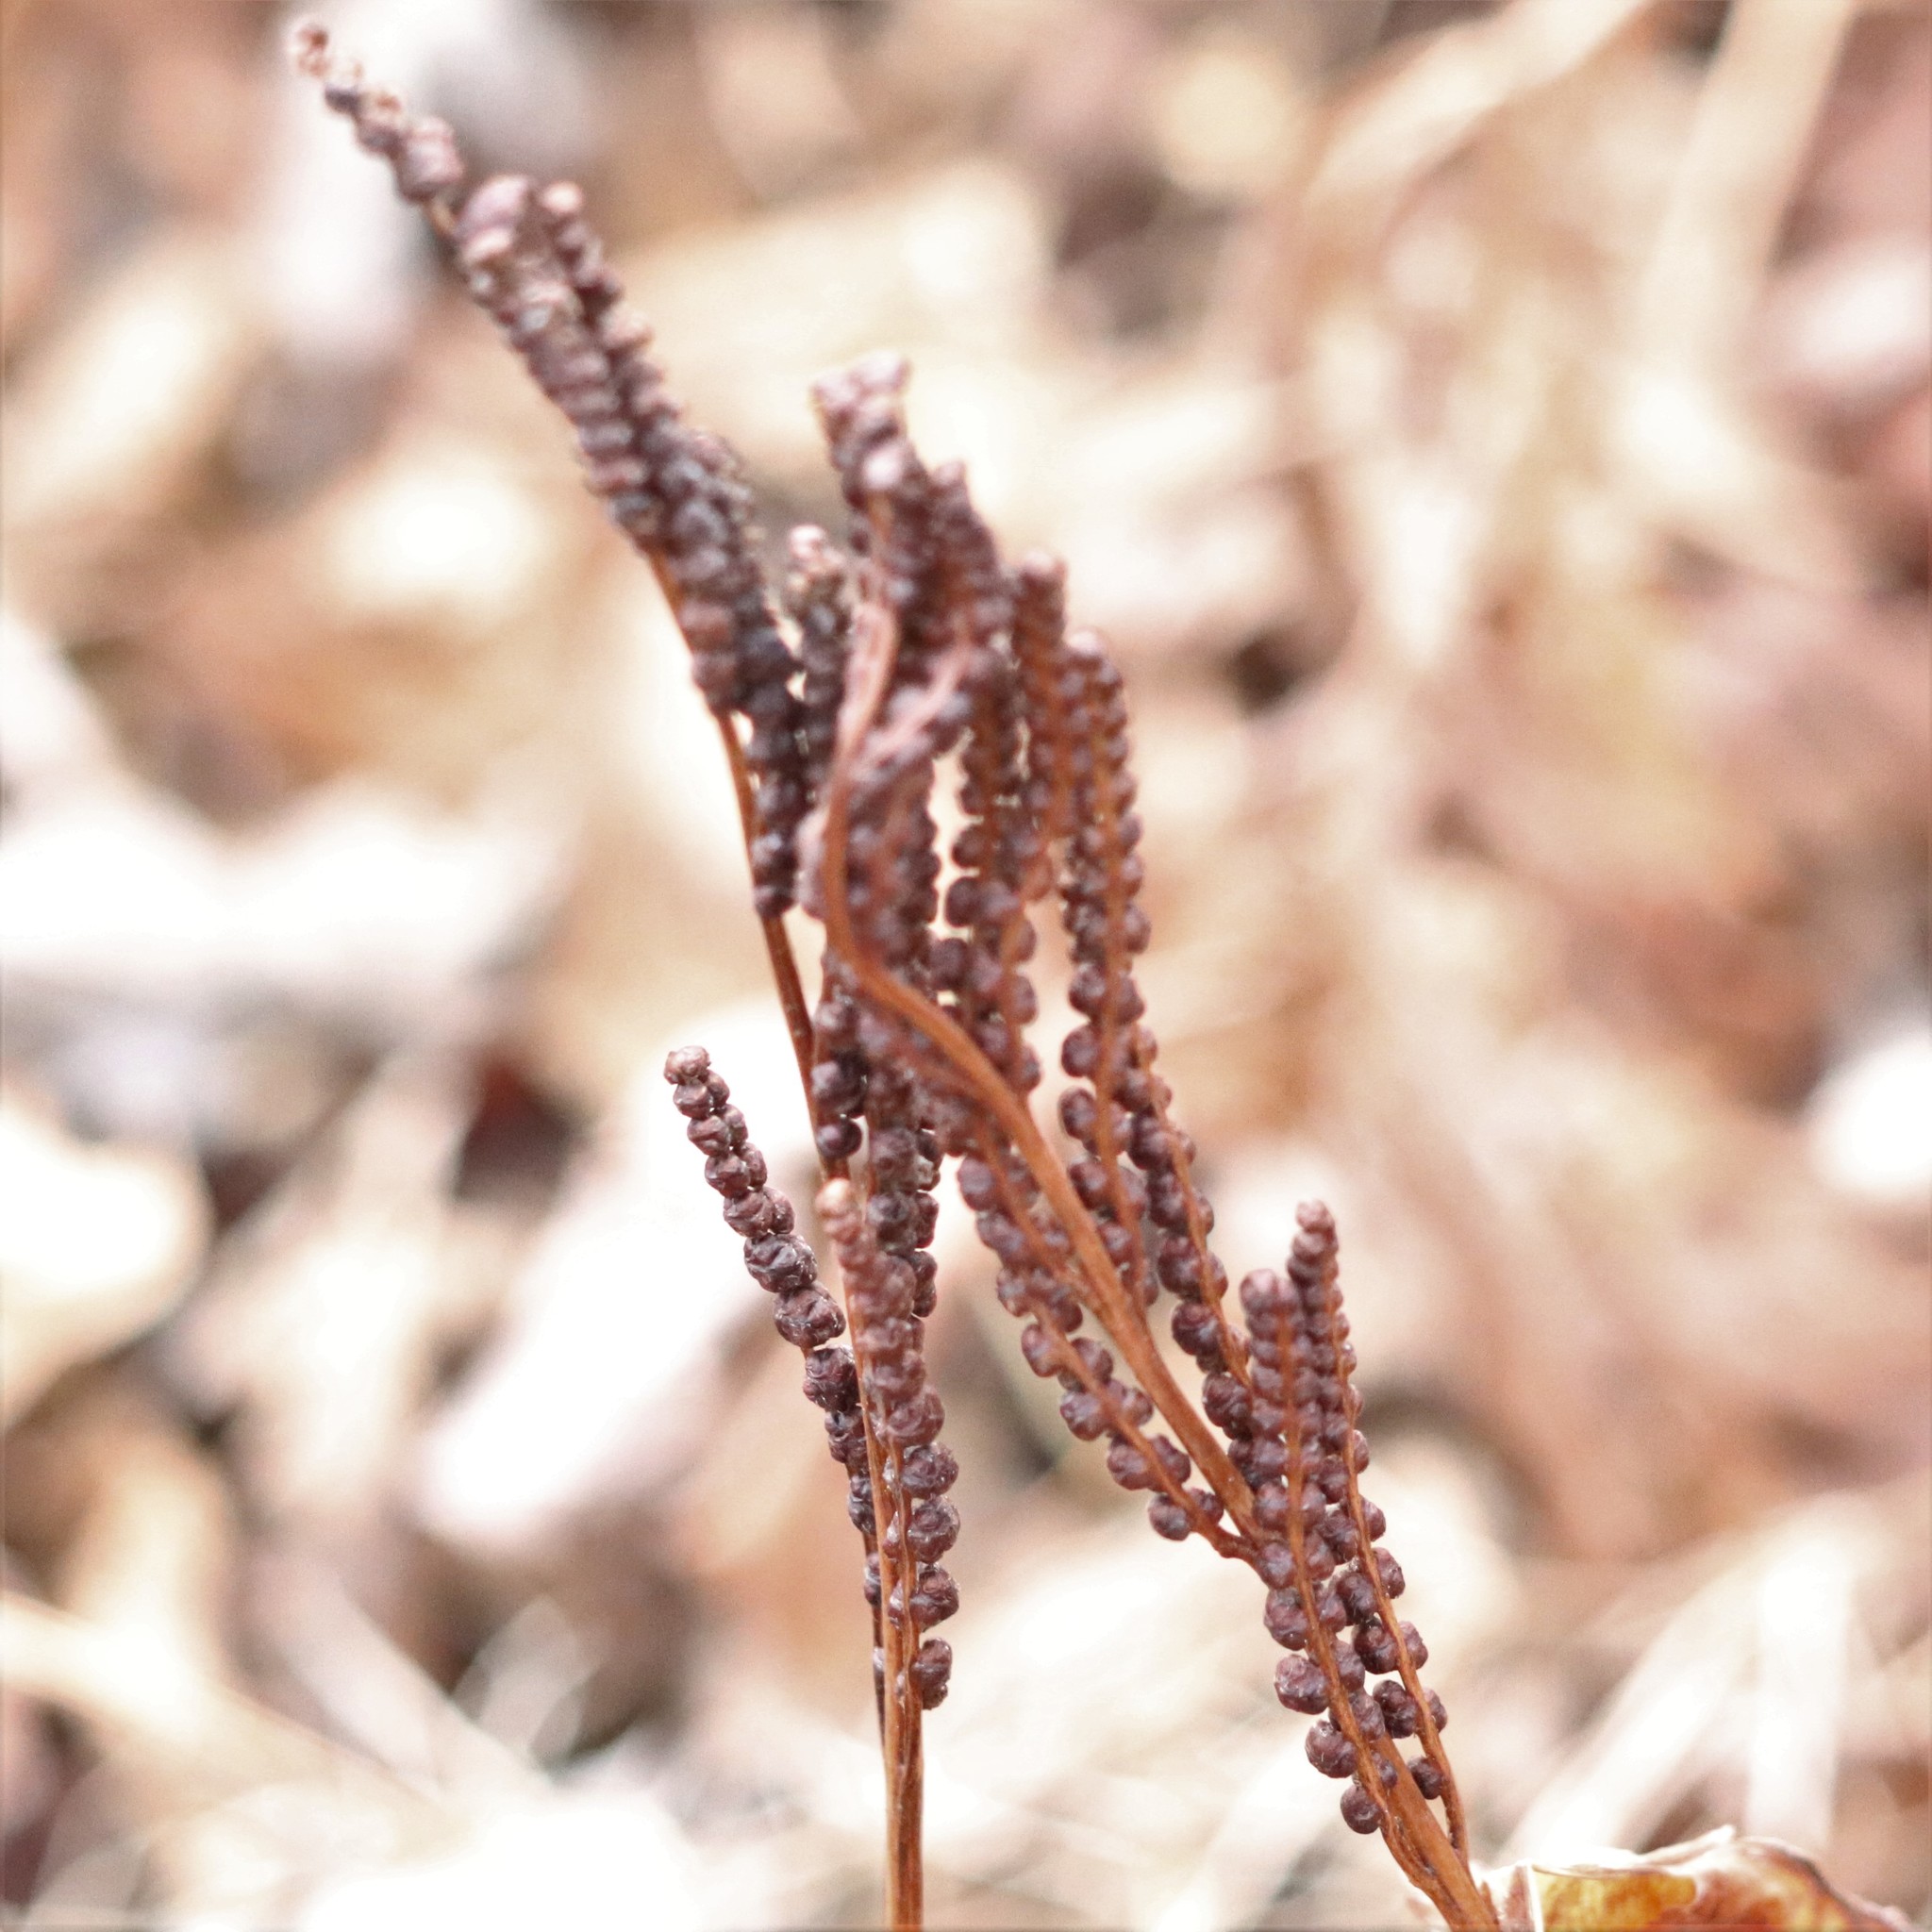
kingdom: Plantae
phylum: Tracheophyta
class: Polypodiopsida
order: Polypodiales
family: Onocleaceae
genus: Onoclea
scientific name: Onoclea sensibilis
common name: Sensitive fern
